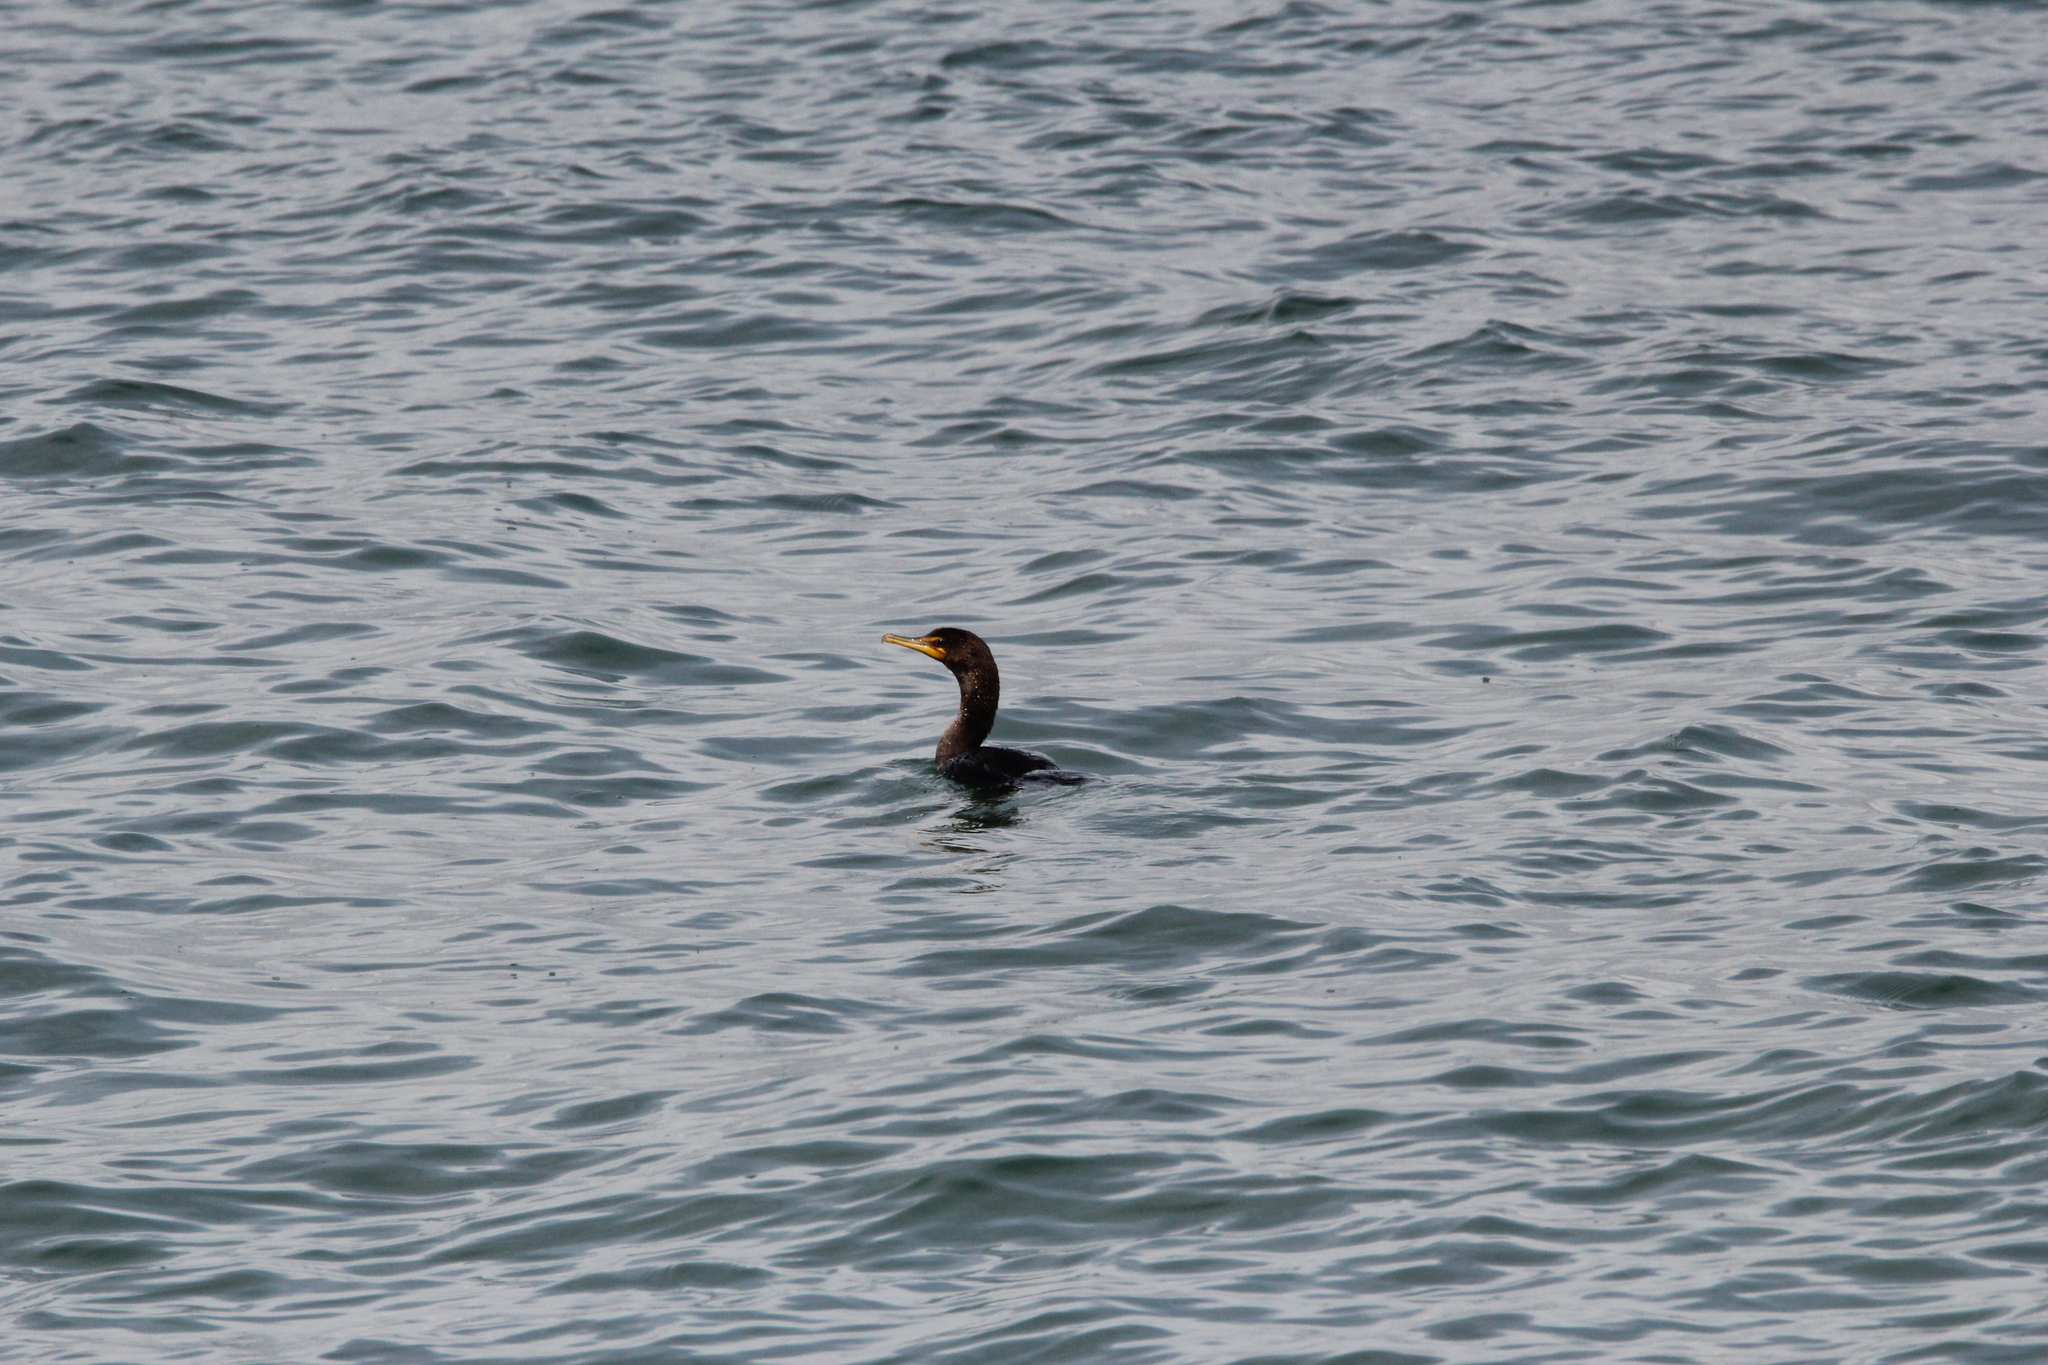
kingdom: Animalia
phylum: Chordata
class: Aves
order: Suliformes
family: Phalacrocoracidae
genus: Phalacrocorax
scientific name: Phalacrocorax auritus
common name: Double-crested cormorant
